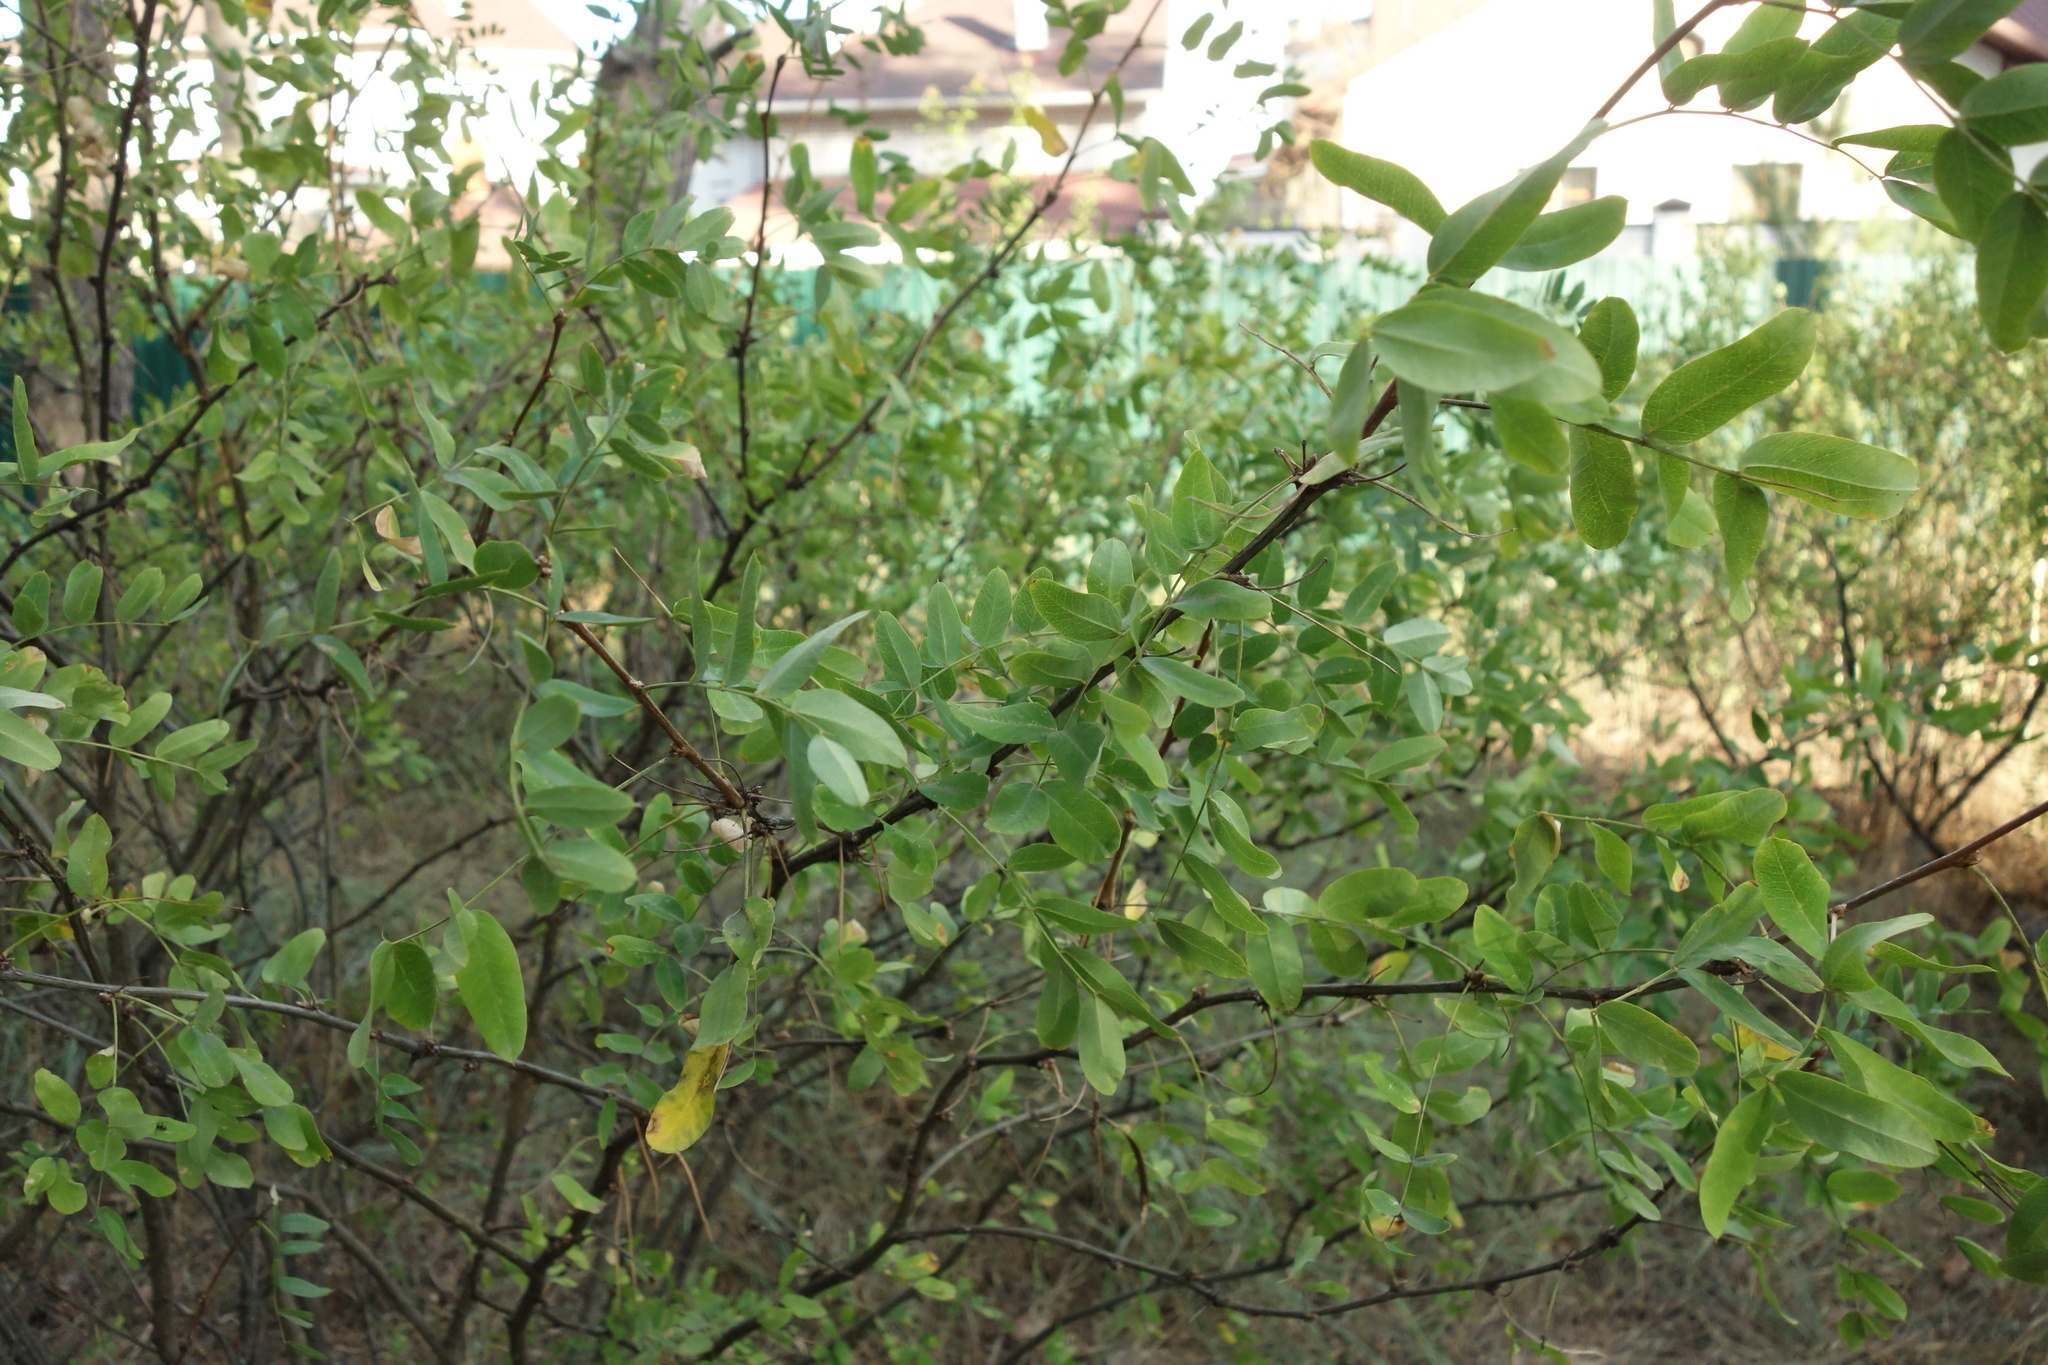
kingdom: Plantae
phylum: Tracheophyta
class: Magnoliopsida
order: Fabales
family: Fabaceae
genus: Caragana
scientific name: Caragana arborescens
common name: Siberian peashrub
